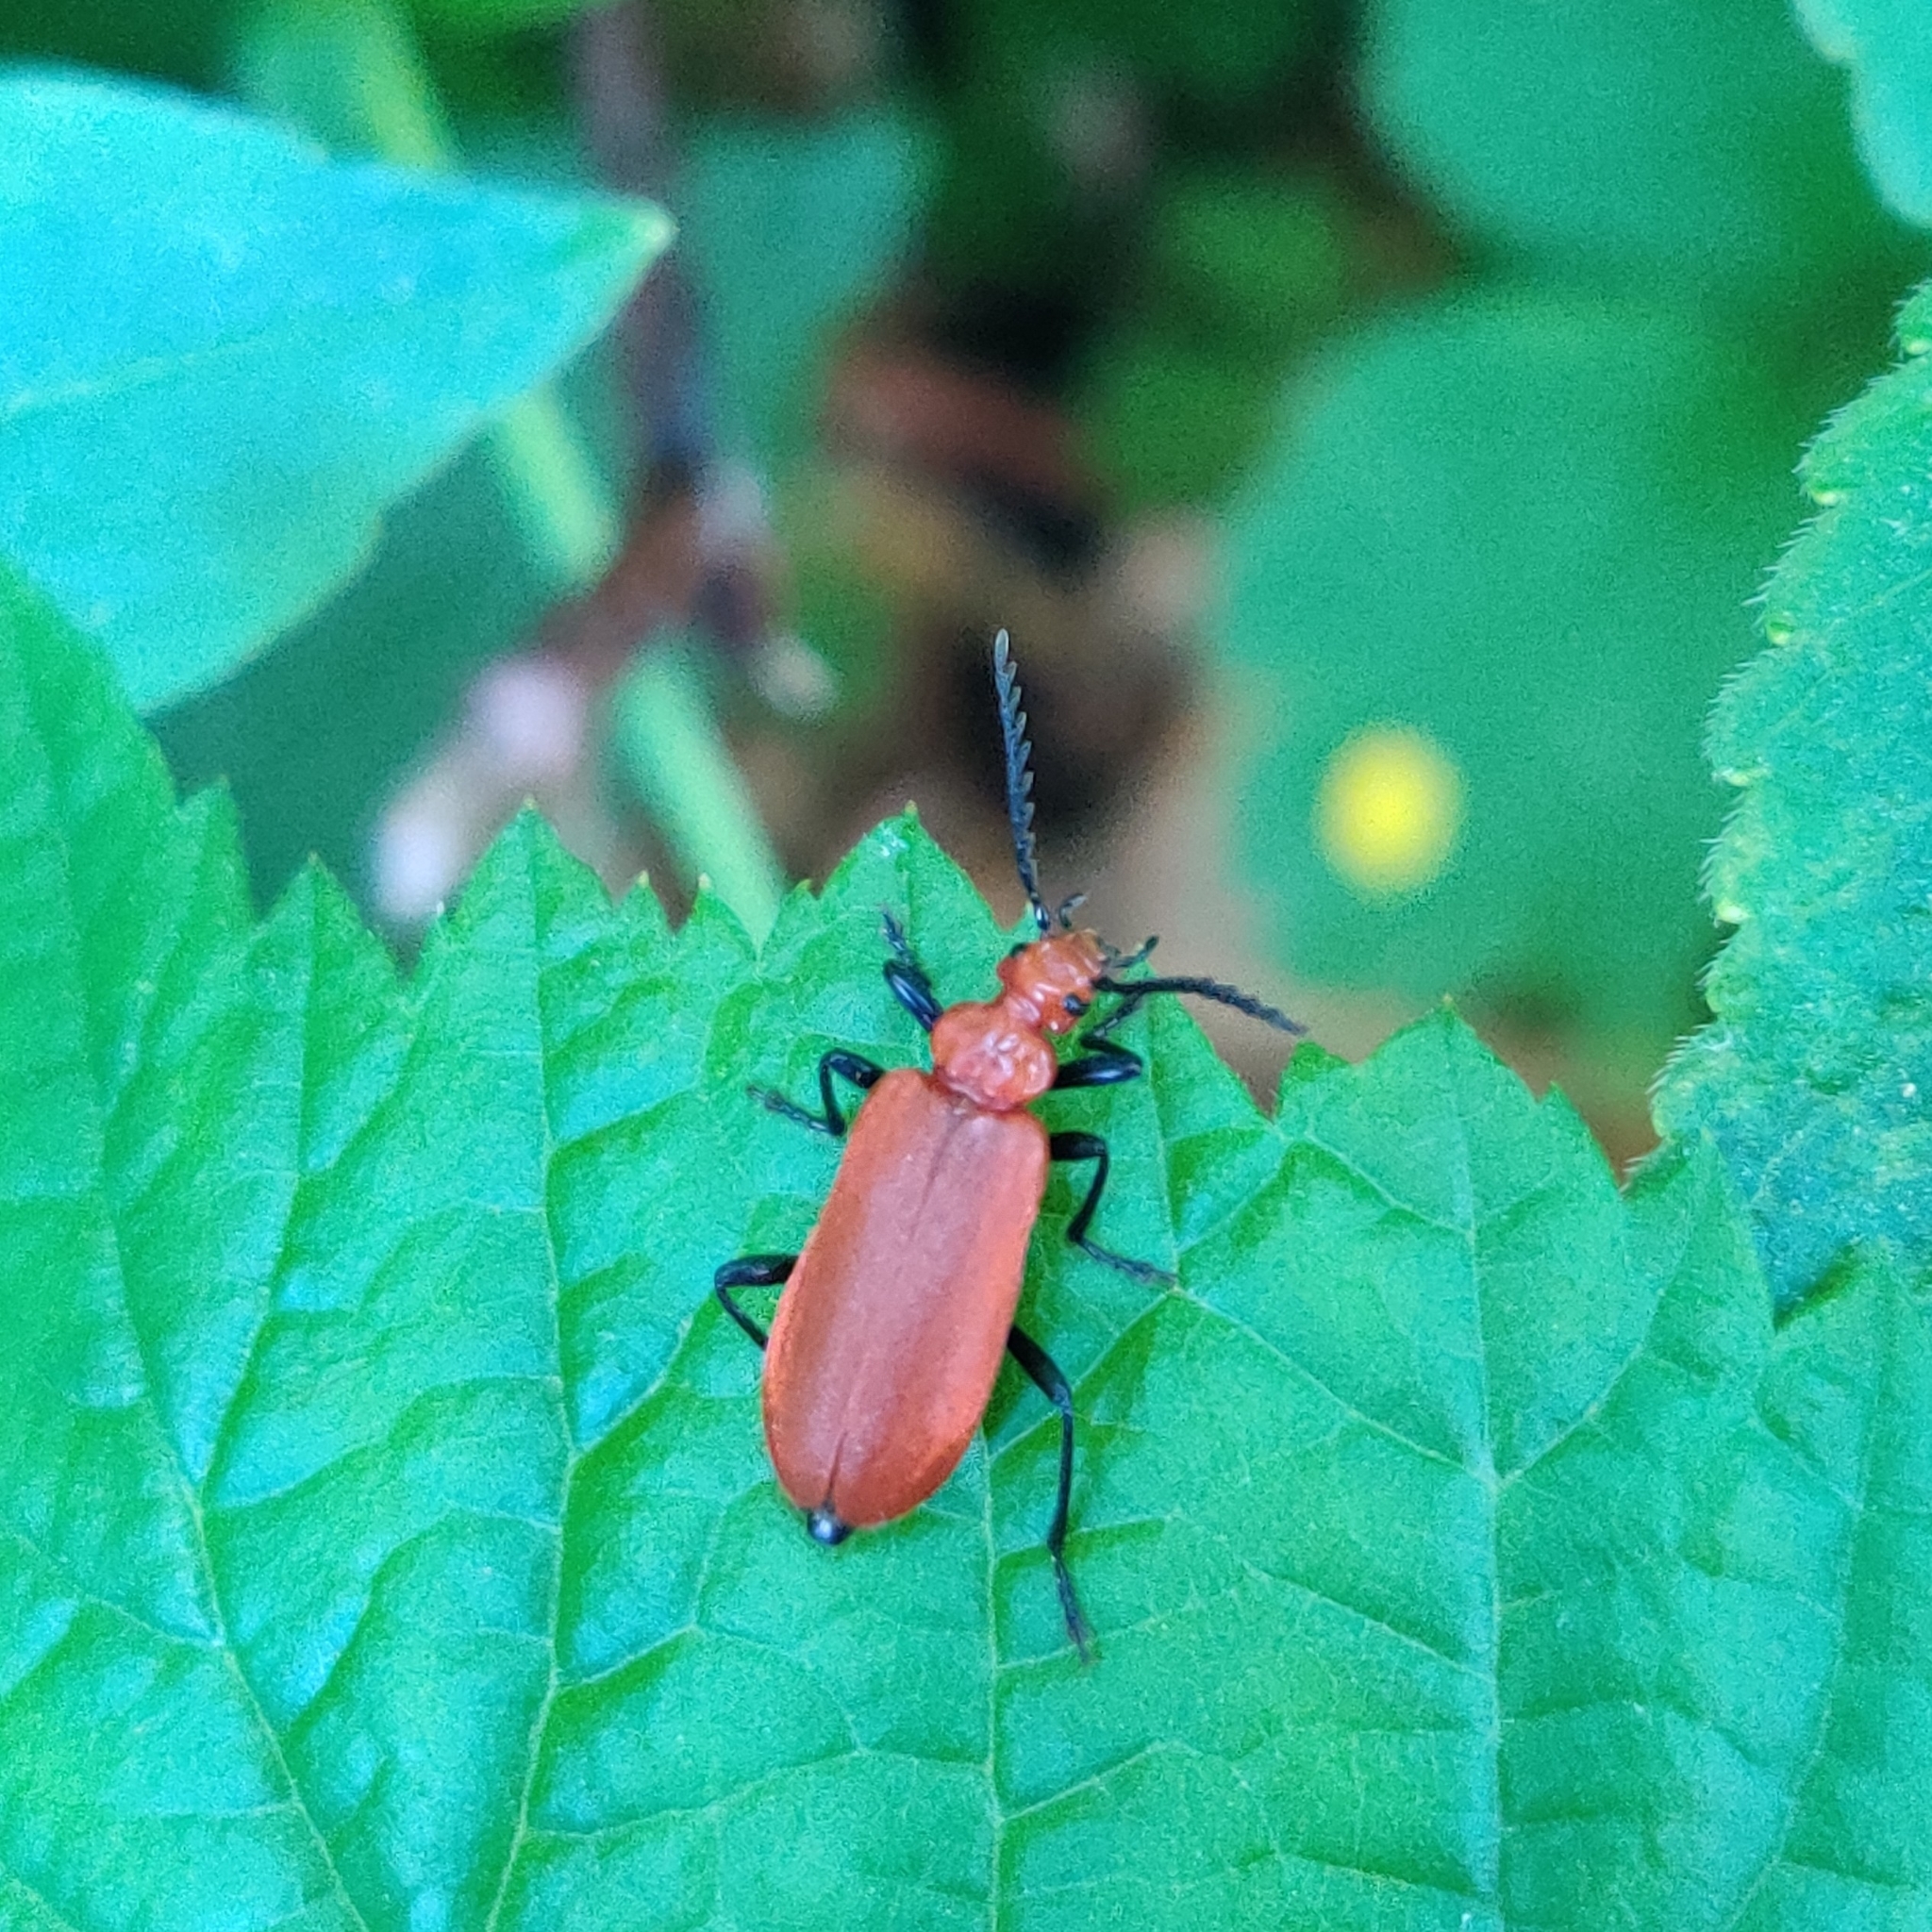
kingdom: Animalia
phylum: Arthropoda
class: Insecta
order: Coleoptera
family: Pyrochroidae
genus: Pyrochroa
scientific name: Pyrochroa serraticornis
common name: Red-headed cardinal beetle
